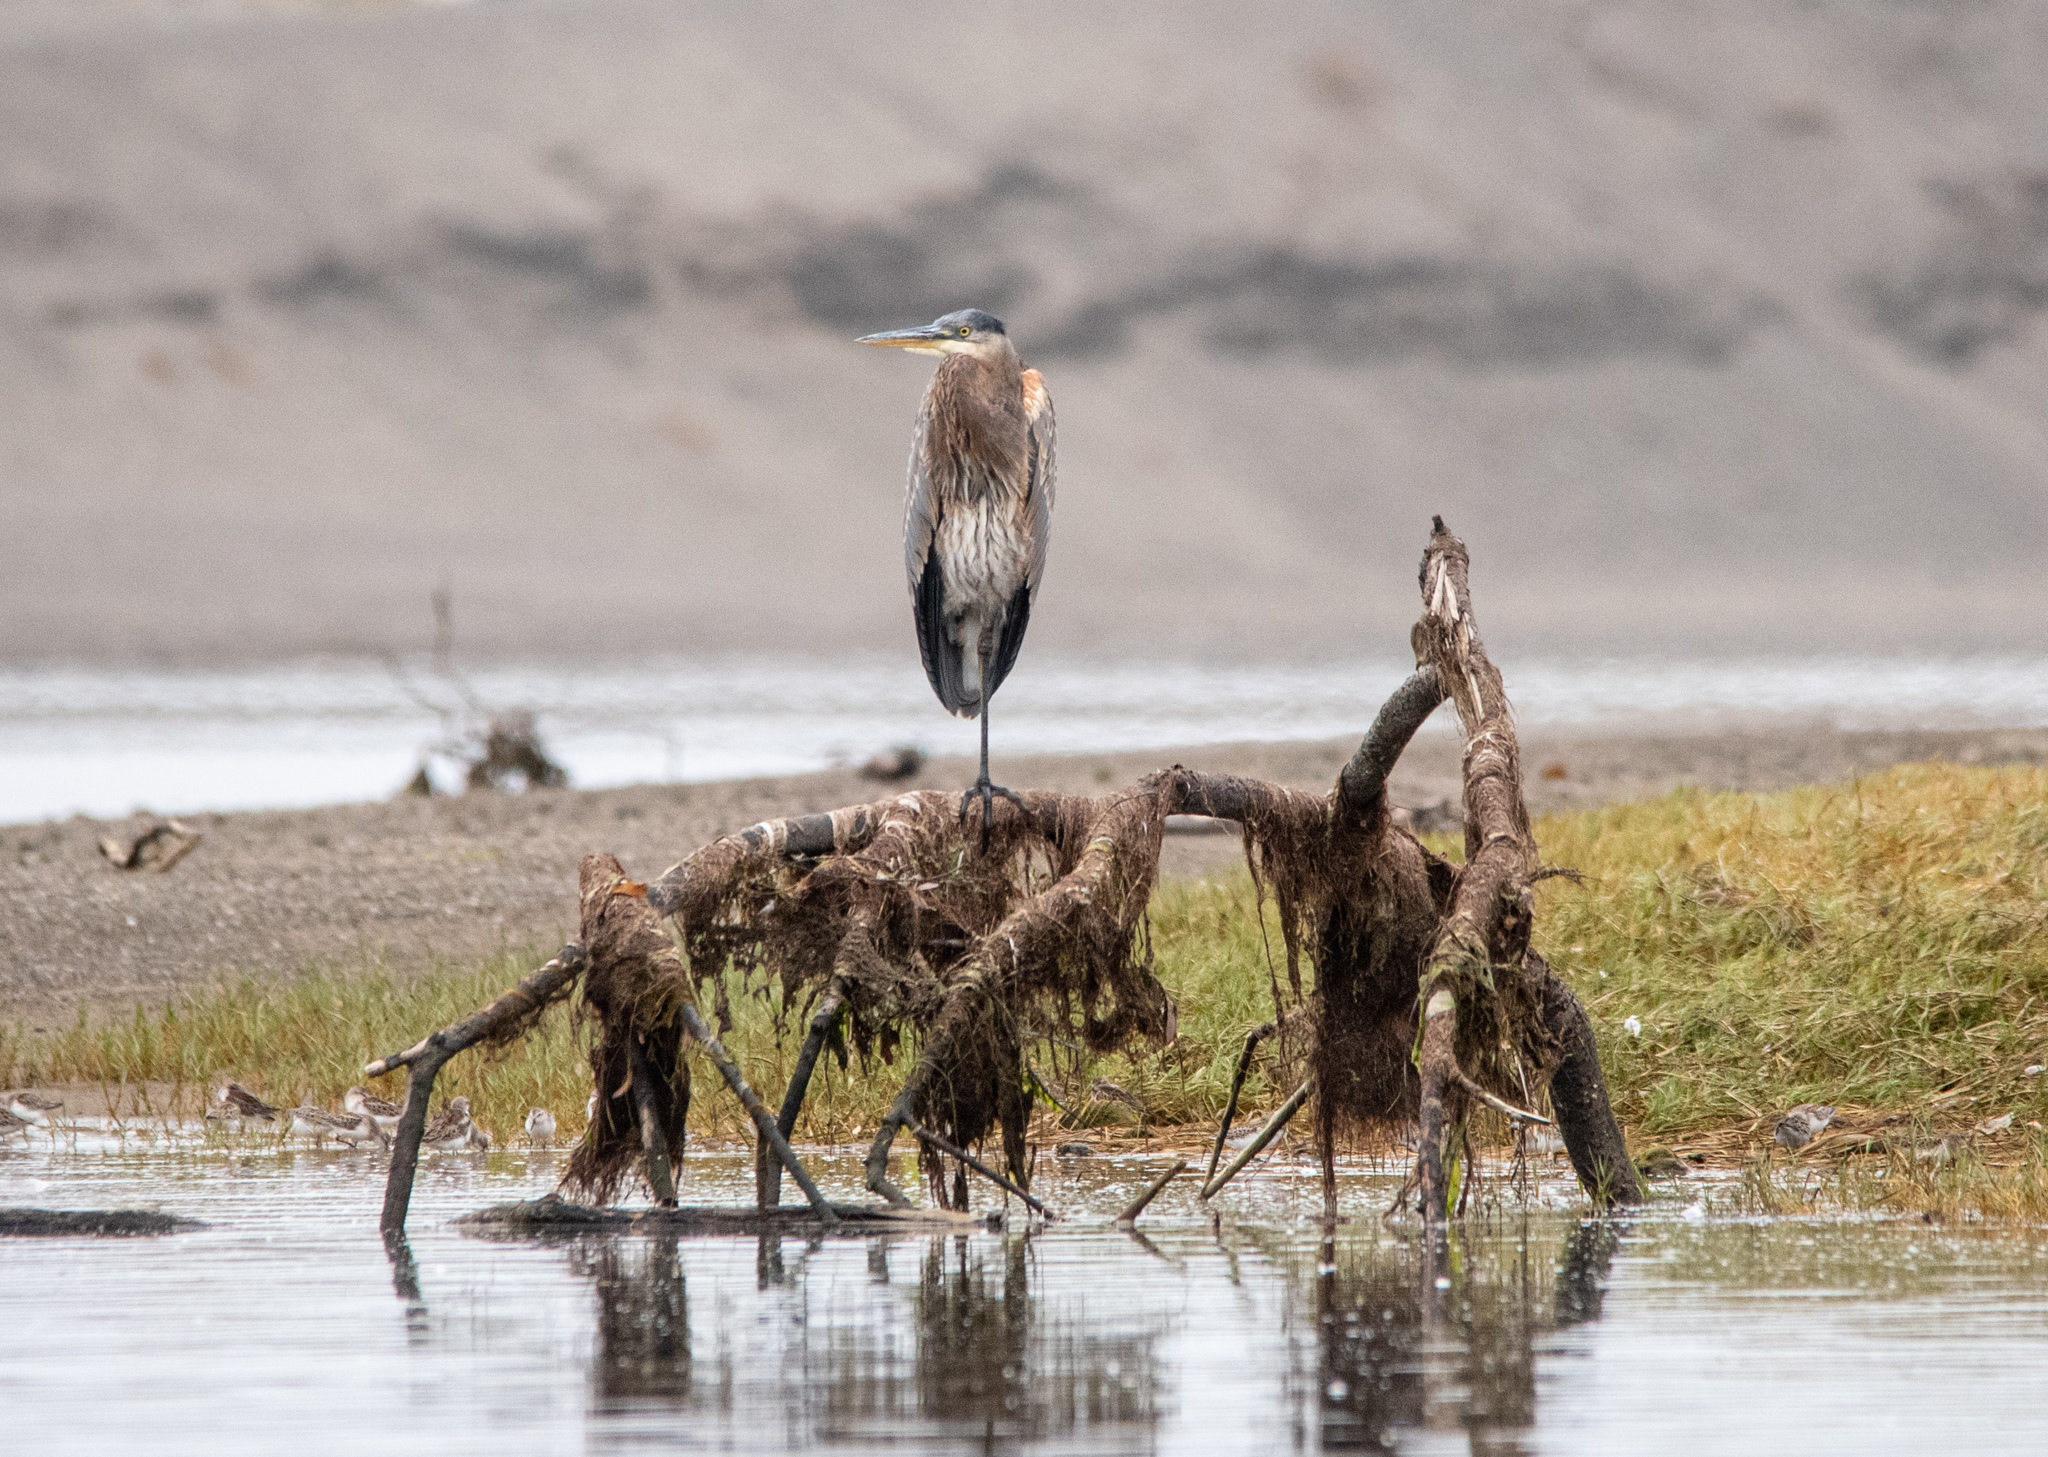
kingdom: Animalia
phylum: Chordata
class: Aves
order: Pelecaniformes
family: Ardeidae
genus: Ardea
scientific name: Ardea herodias
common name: Great blue heron
